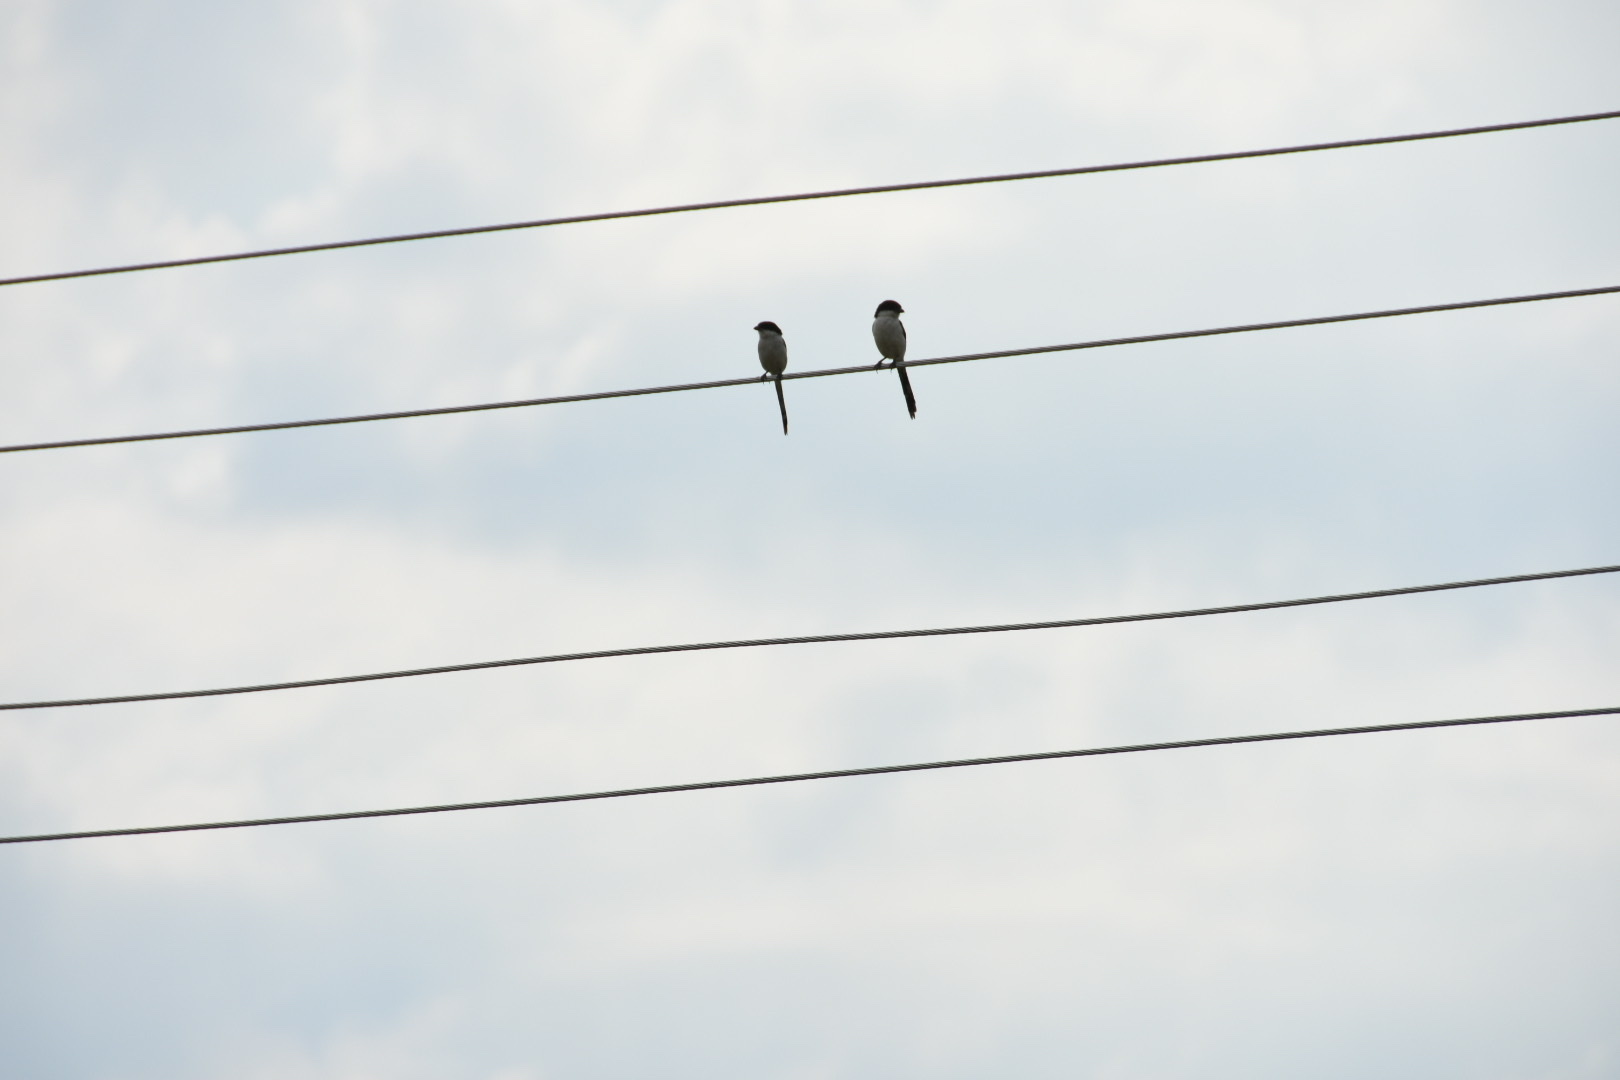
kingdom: Animalia
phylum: Chordata
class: Aves
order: Passeriformes
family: Laniidae
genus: Lanius
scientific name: Lanius humeralis
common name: Northern fiscal
